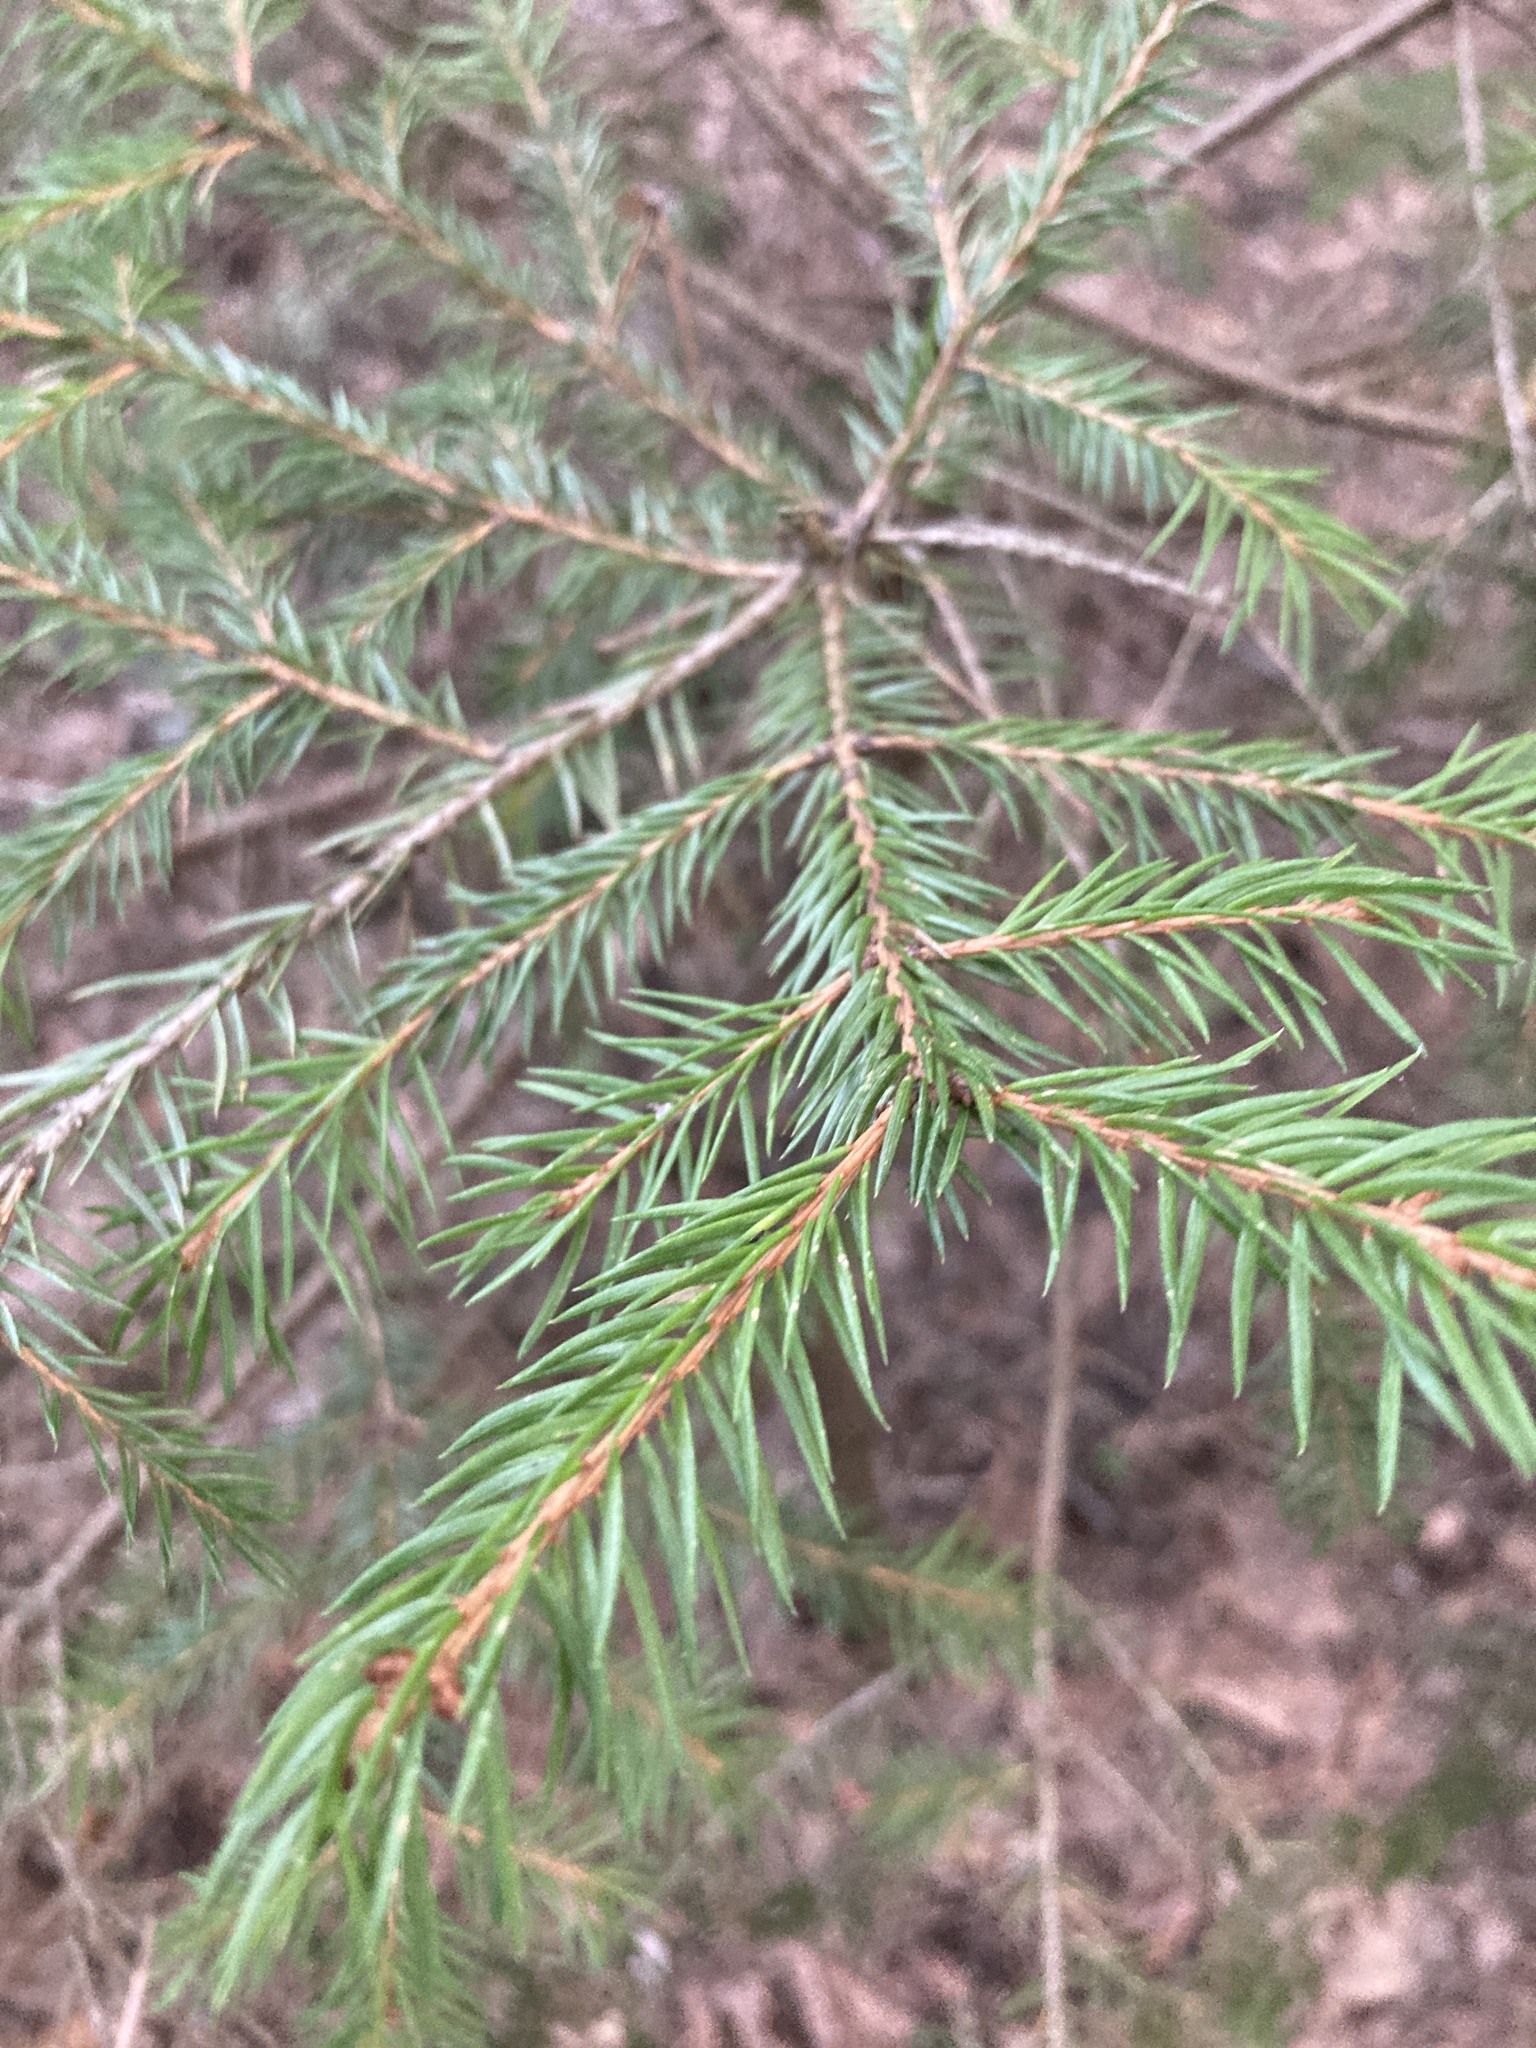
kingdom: Plantae
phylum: Tracheophyta
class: Pinopsida
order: Pinales
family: Pinaceae
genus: Picea
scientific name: Picea abies
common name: Norway spruce
